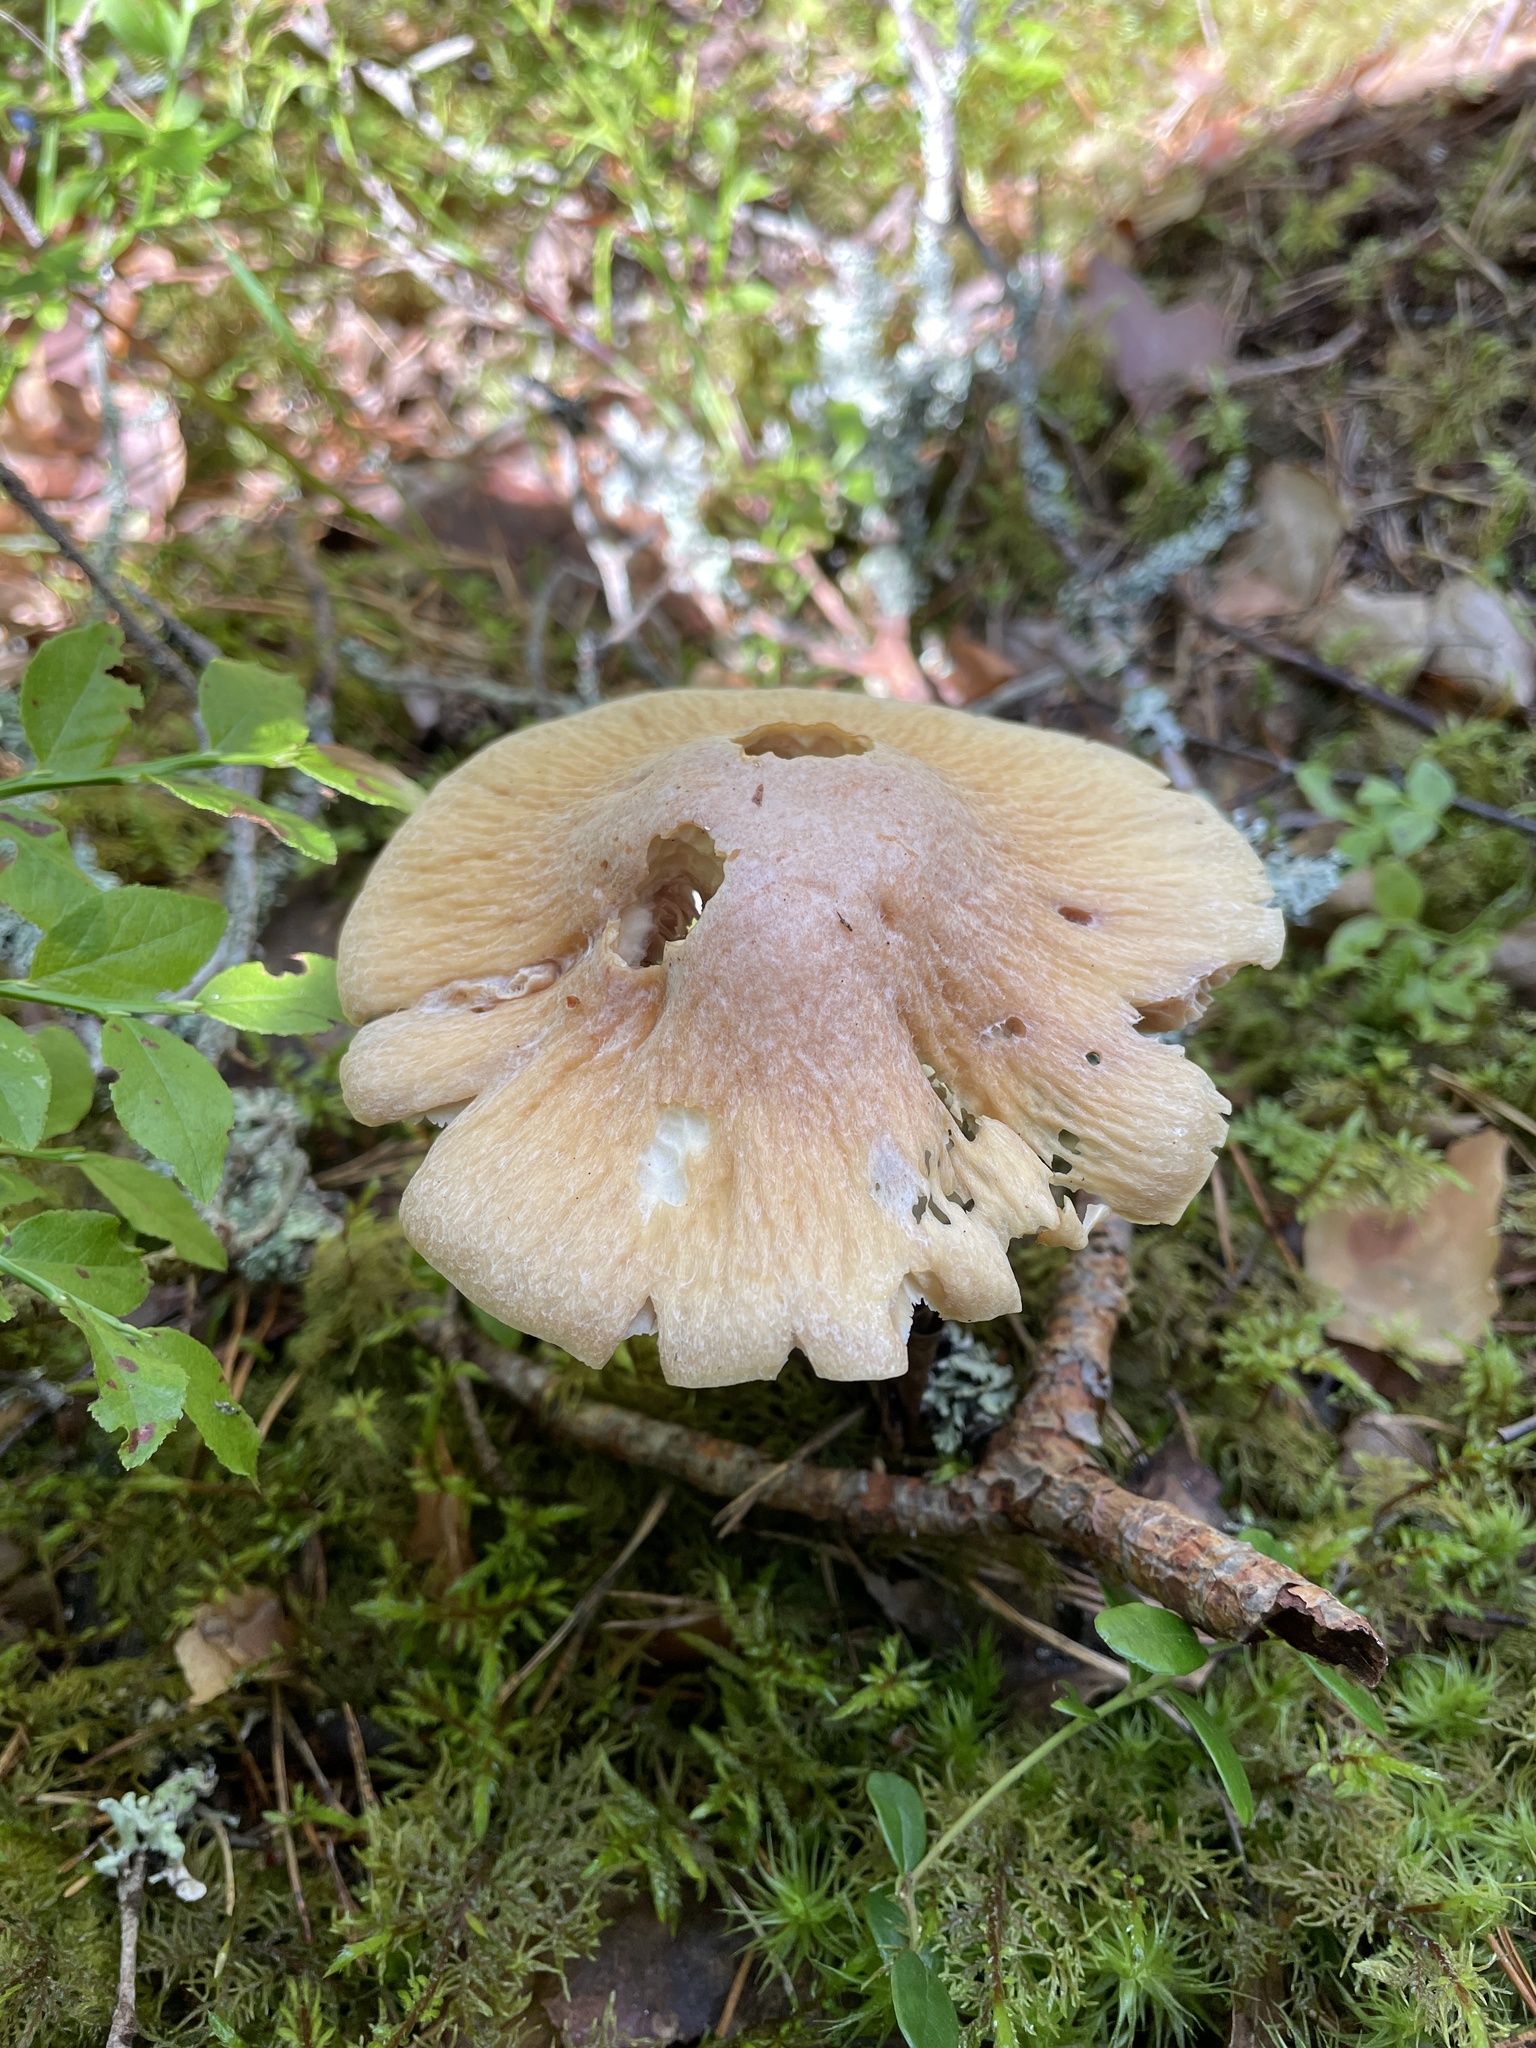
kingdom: Fungi
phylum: Basidiomycota
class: Agaricomycetes
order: Agaricales
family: Cortinariaceae
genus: Cortinarius
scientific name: Cortinarius caperatus
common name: The gypsy
